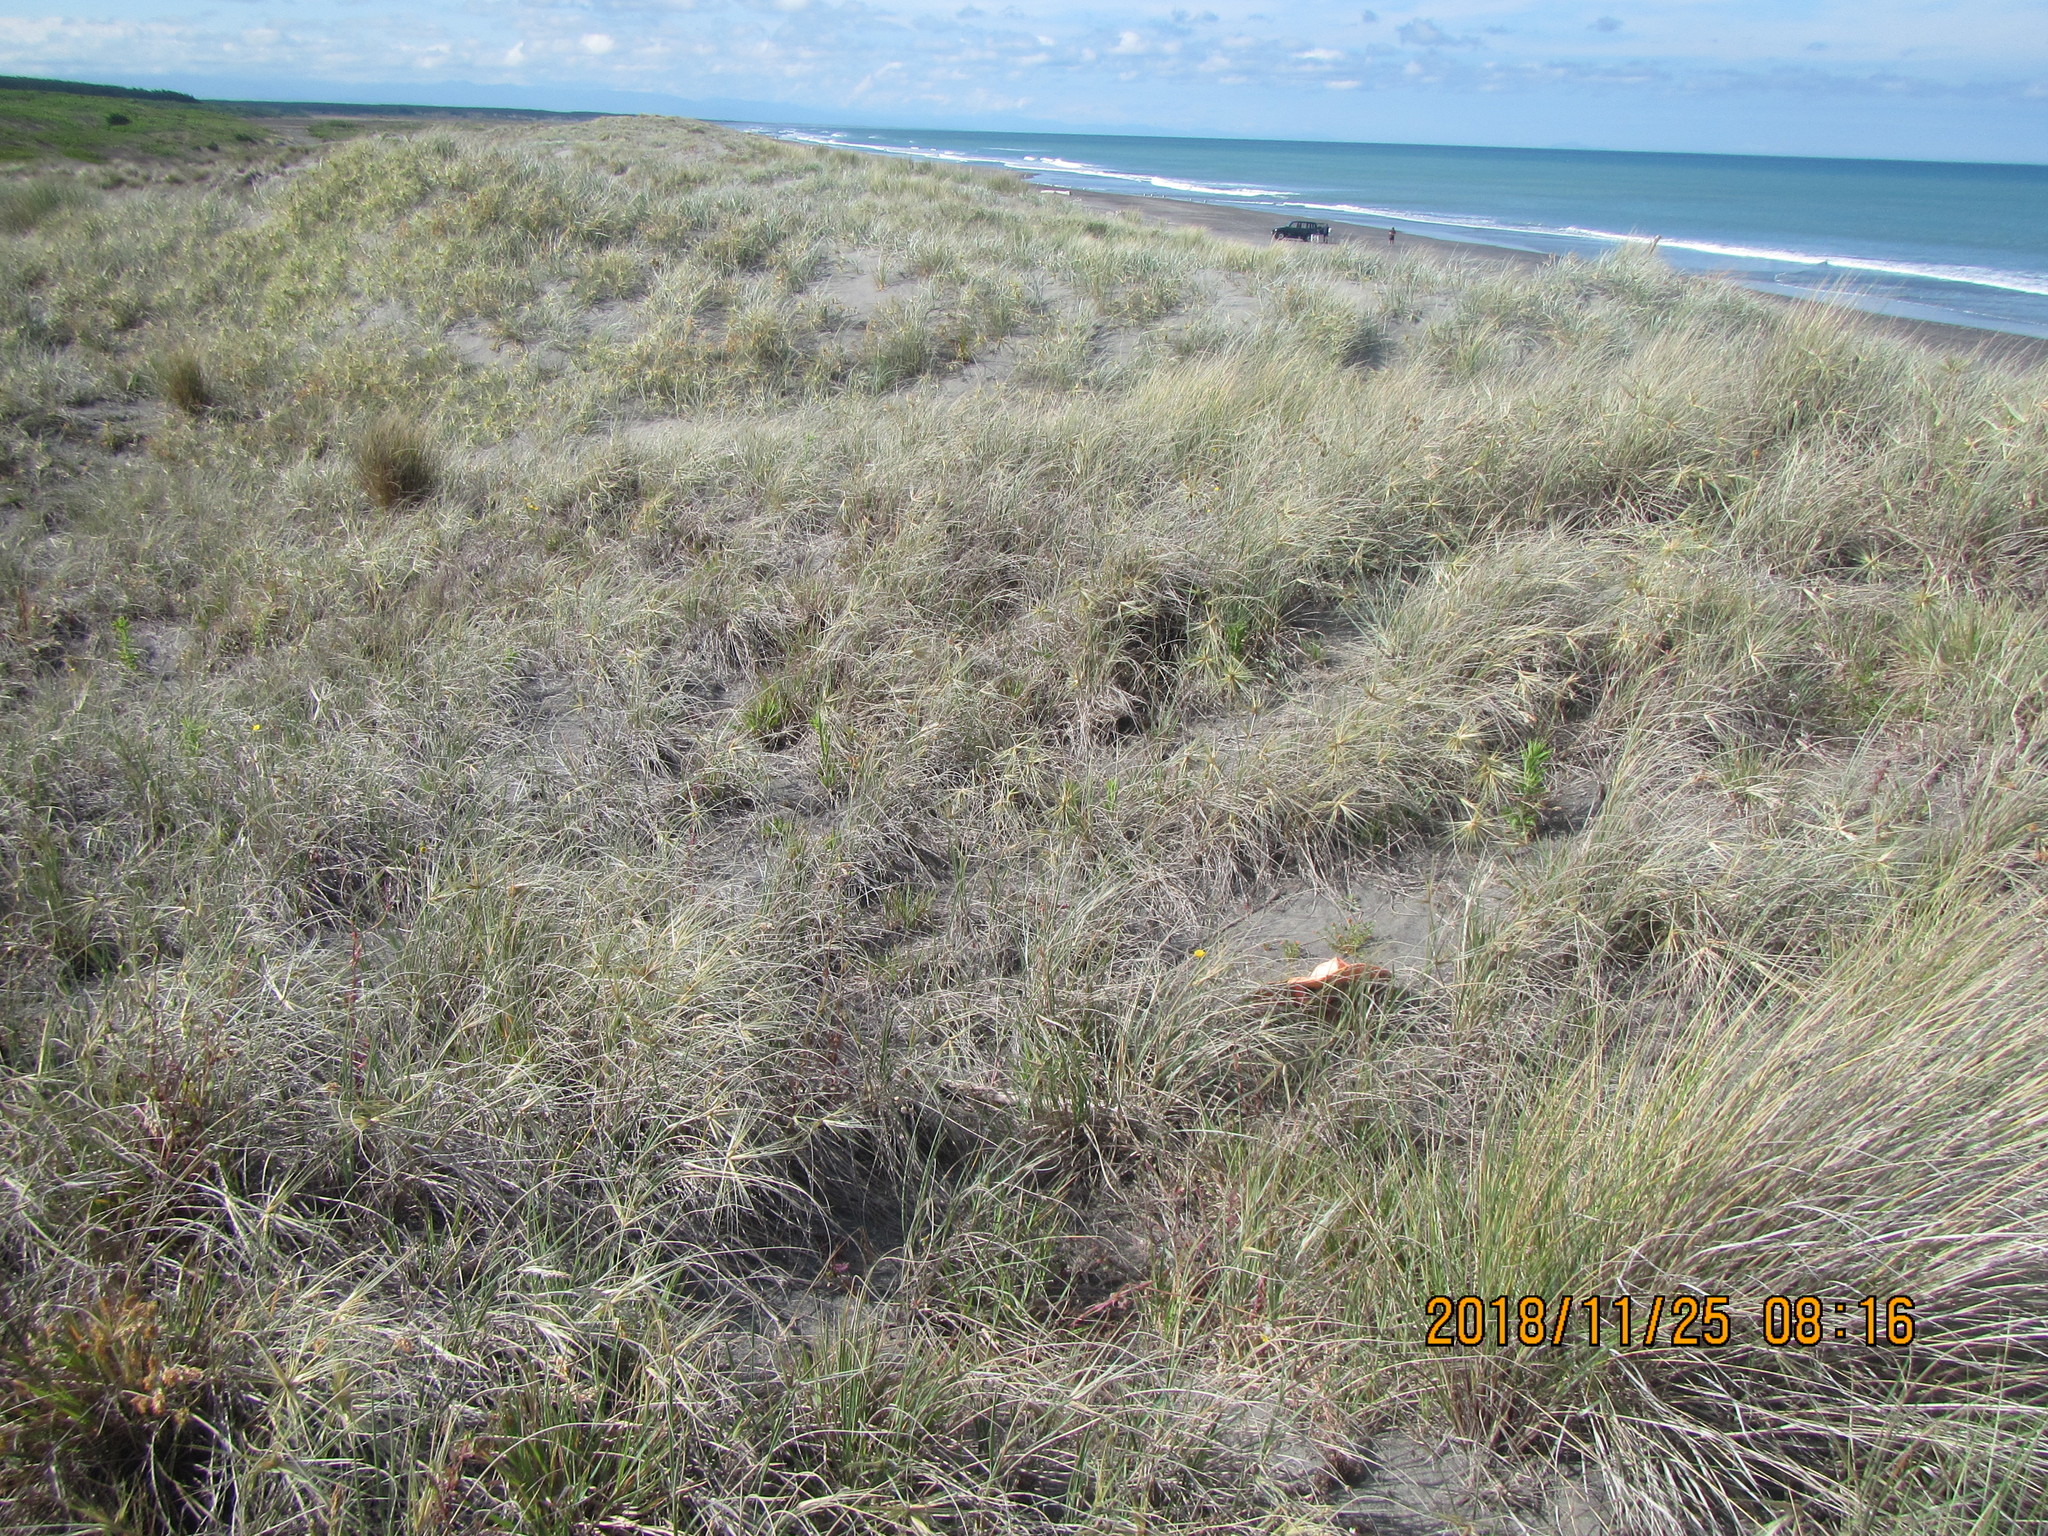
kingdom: Plantae
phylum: Tracheophyta
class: Magnoliopsida
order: Ericales
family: Primulaceae
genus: Lysimachia
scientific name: Lysimachia arvensis
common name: Scarlet pimpernel
